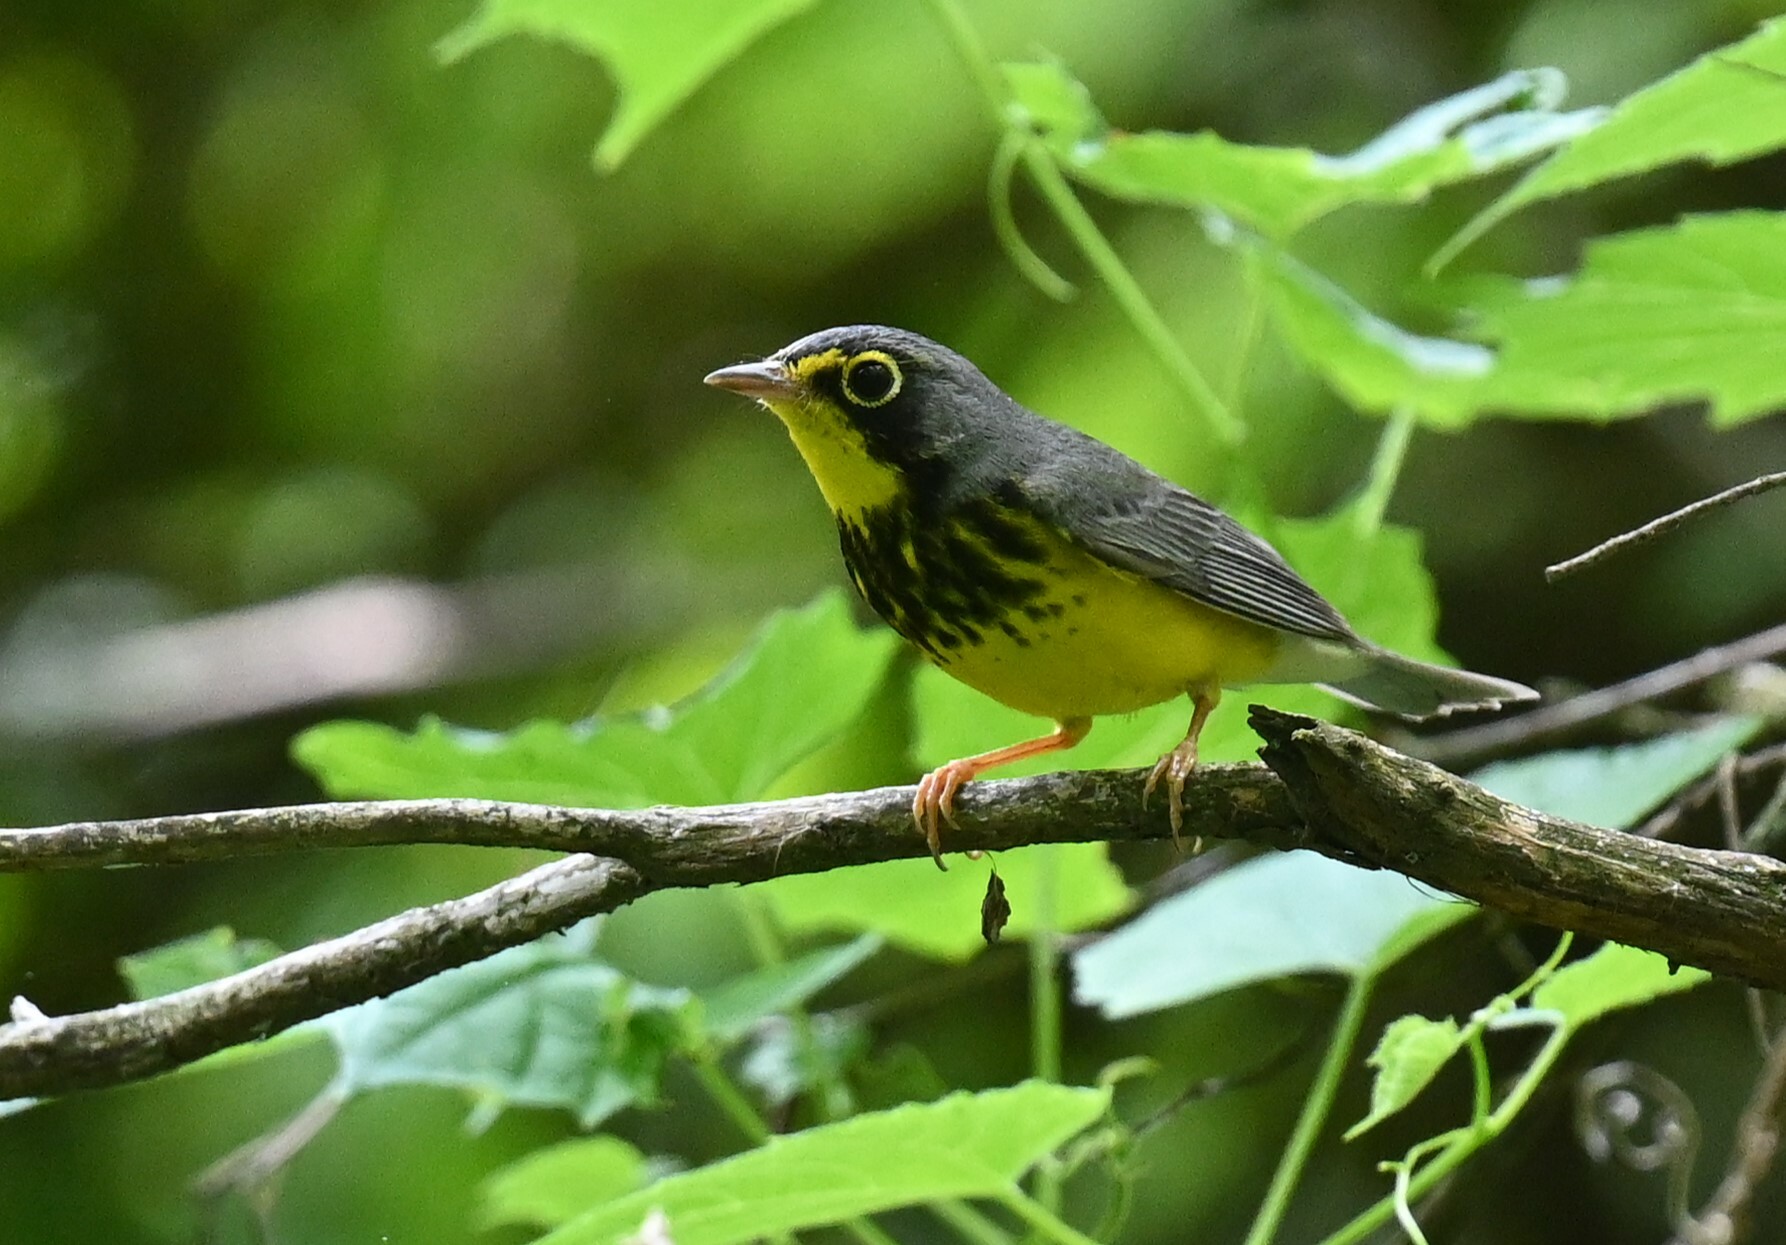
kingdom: Animalia
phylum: Chordata
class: Aves
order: Passeriformes
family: Parulidae
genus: Cardellina
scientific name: Cardellina canadensis
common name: Canada warbler
